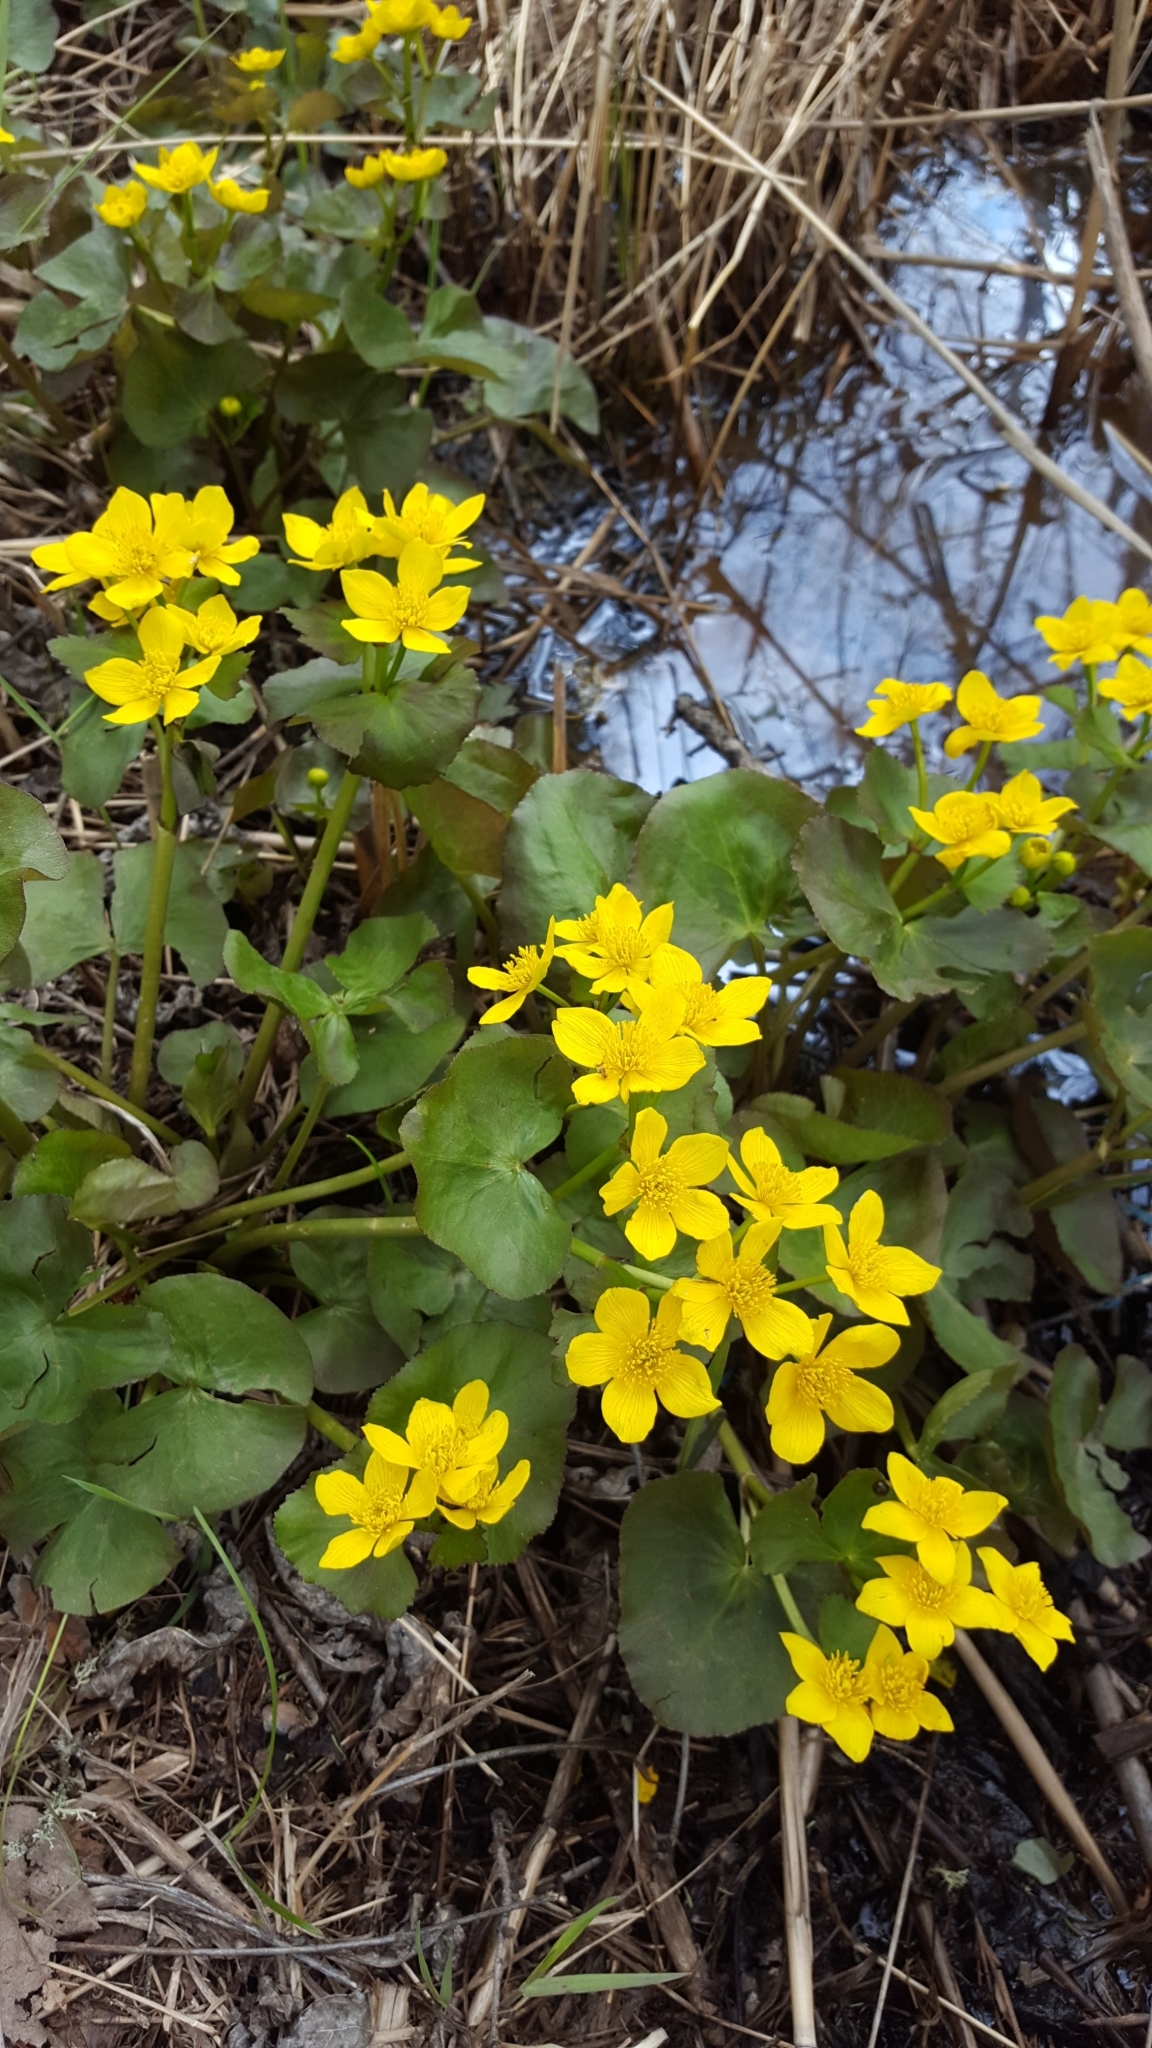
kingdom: Plantae
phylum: Tracheophyta
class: Magnoliopsida
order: Ranunculales
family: Ranunculaceae
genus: Caltha
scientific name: Caltha palustris
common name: Marsh marigold
